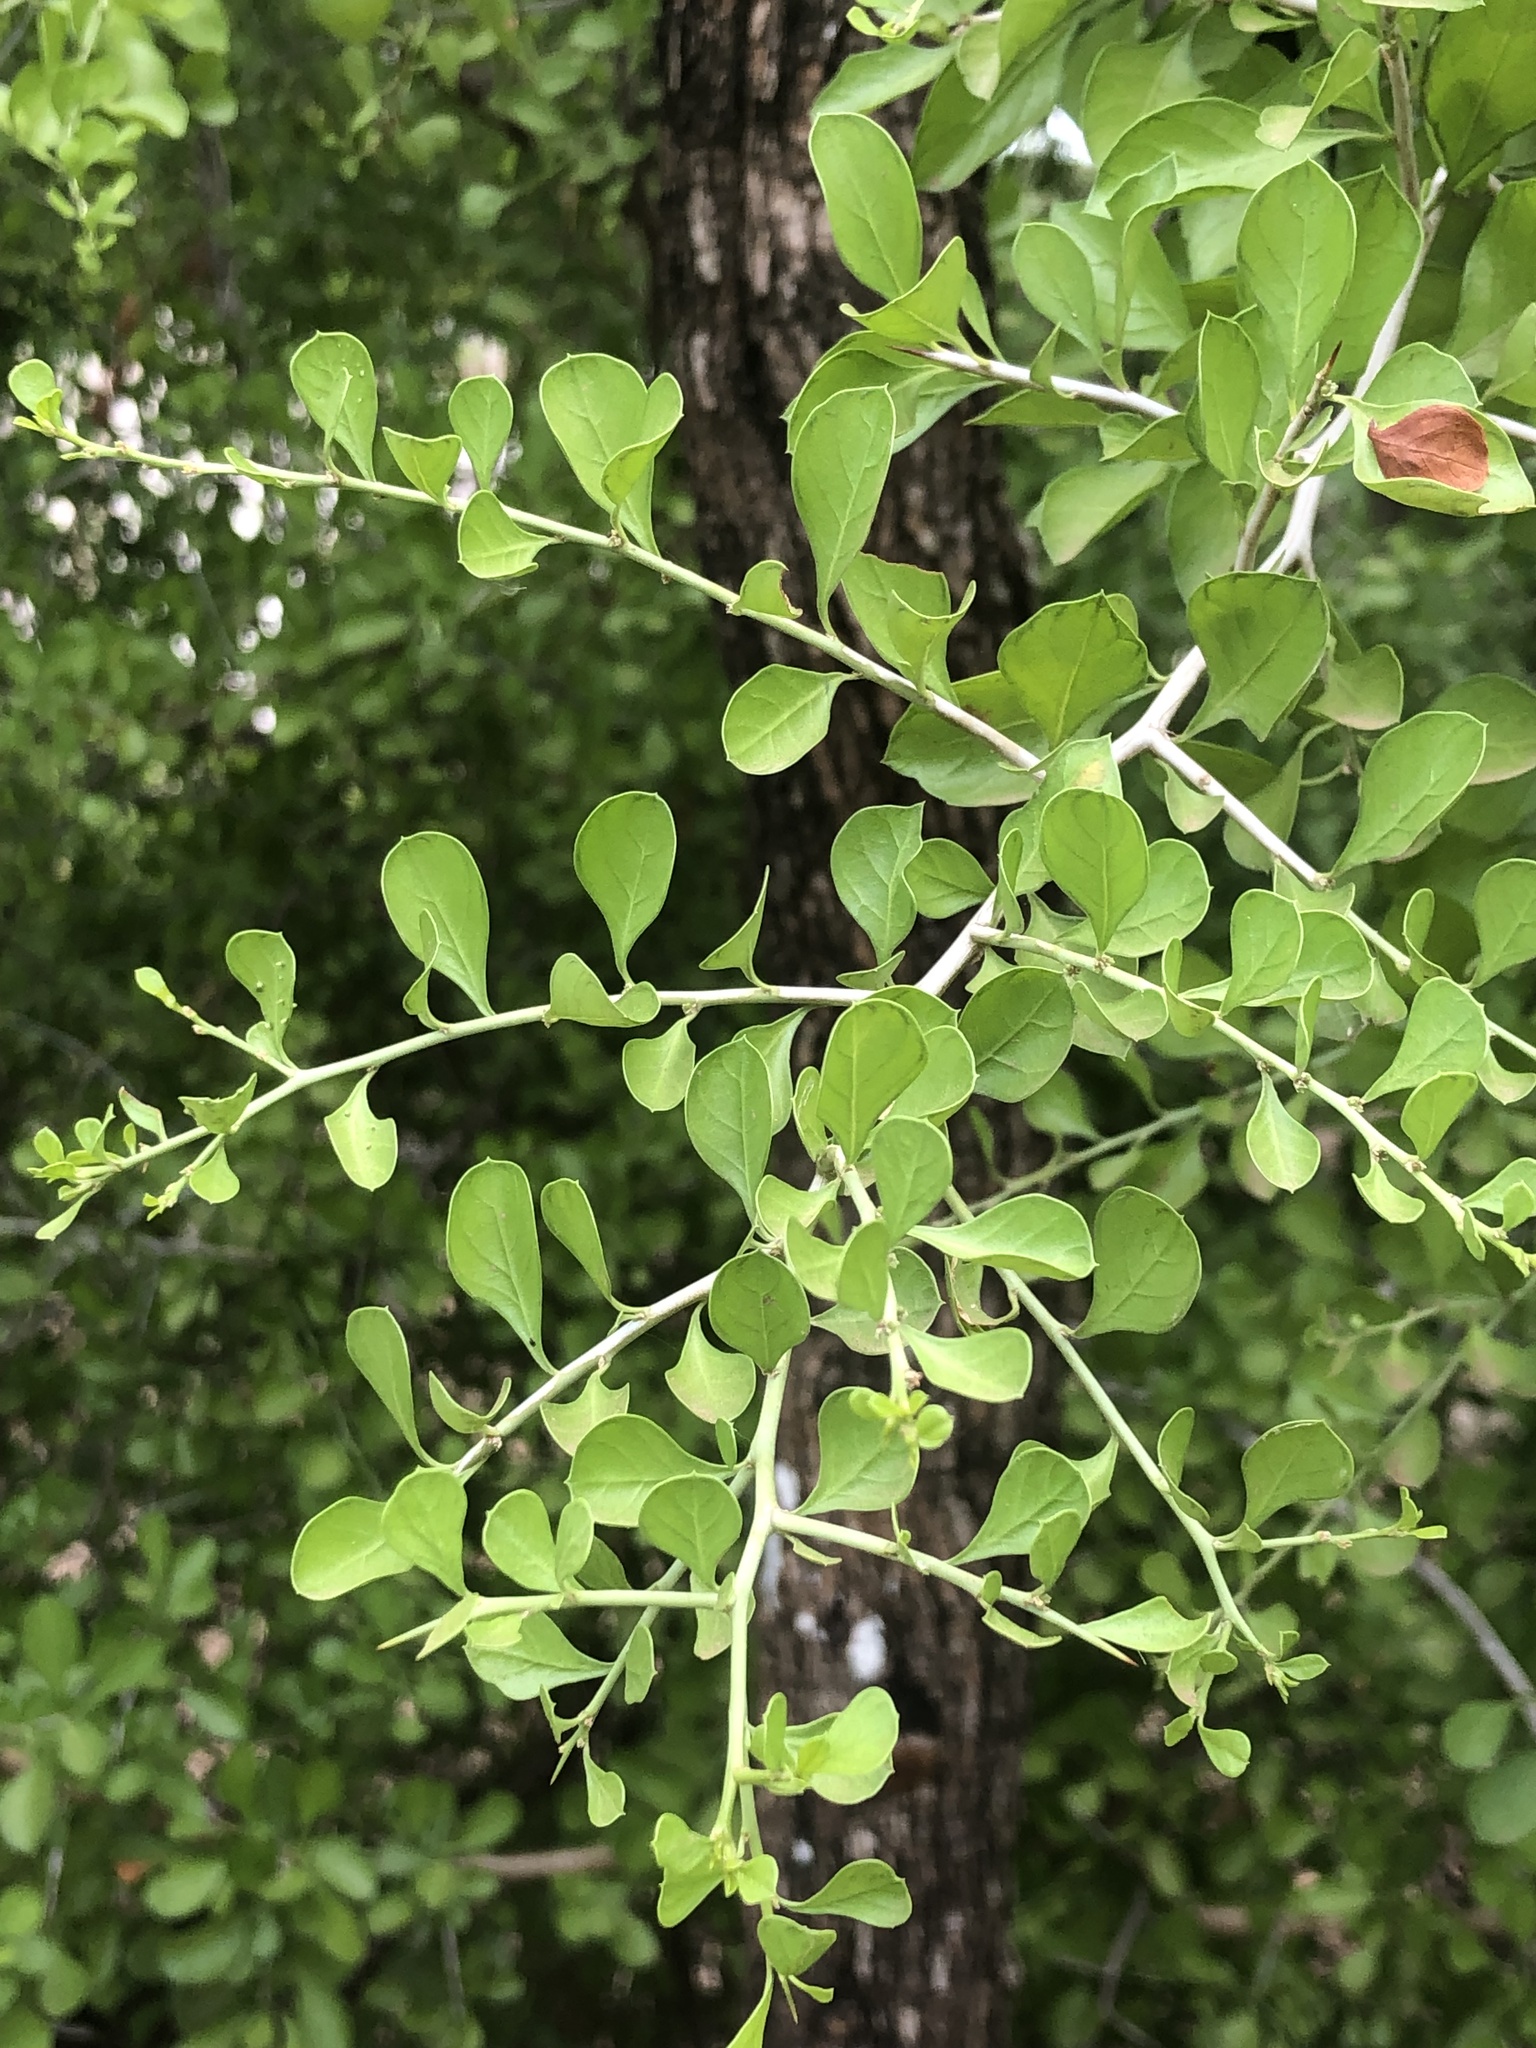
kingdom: Plantae
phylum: Tracheophyta
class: Magnoliopsida
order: Rosales
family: Rhamnaceae
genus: Condalia
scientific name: Condalia hookeri
